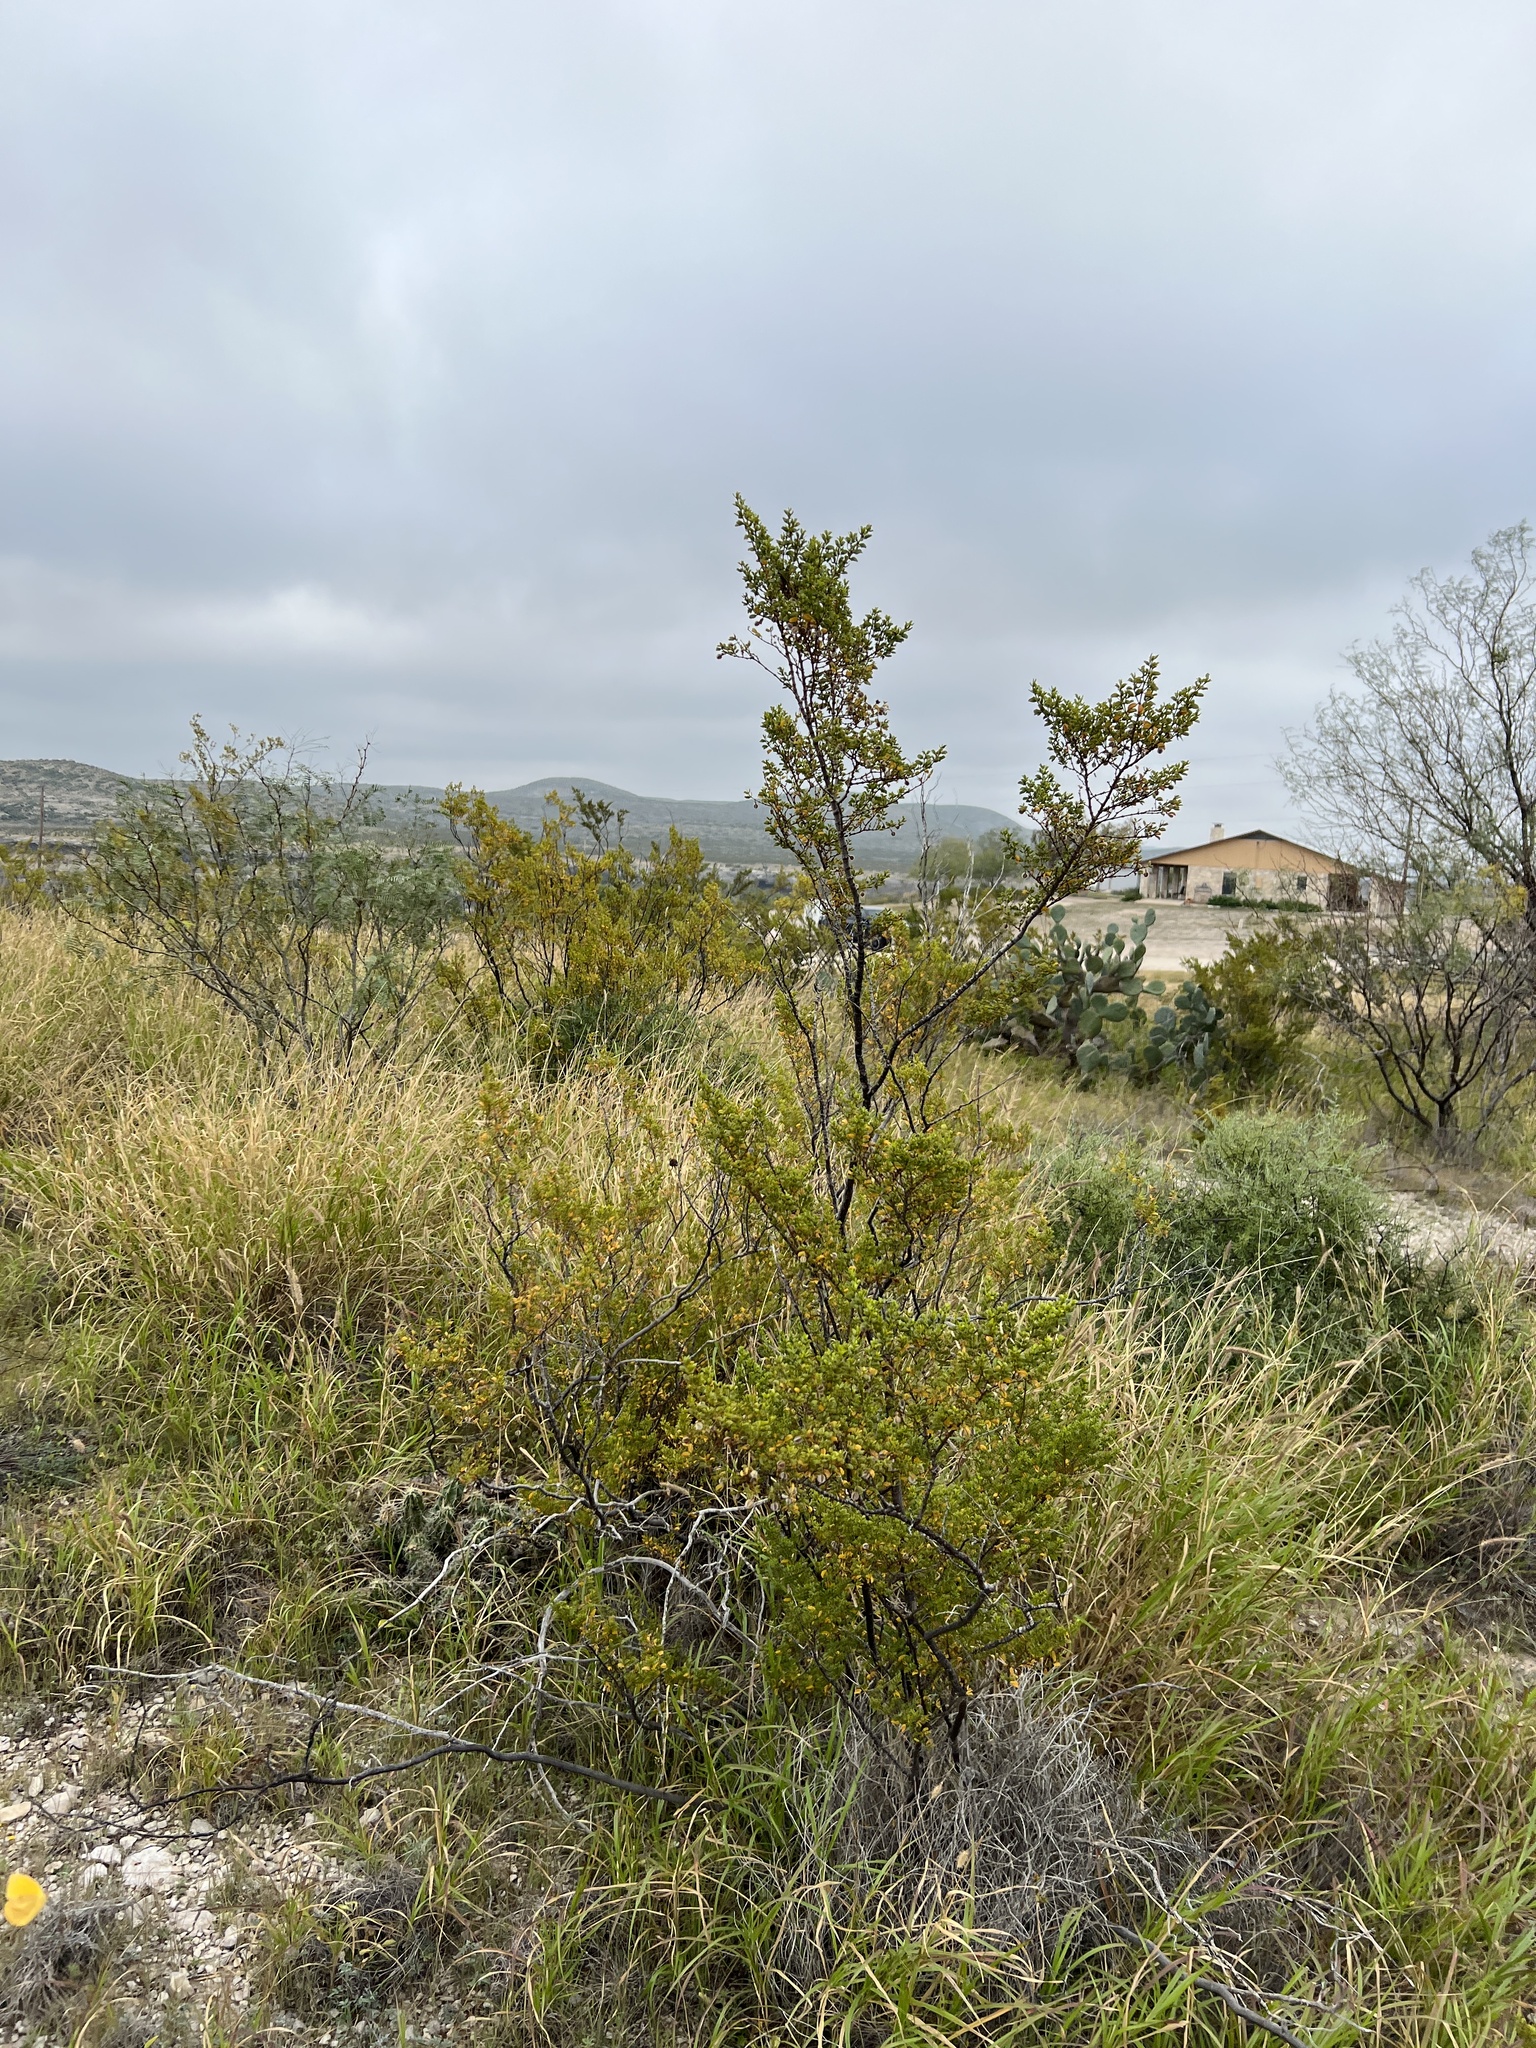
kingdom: Plantae
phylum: Tracheophyta
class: Magnoliopsida
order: Zygophyllales
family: Zygophyllaceae
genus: Larrea
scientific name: Larrea tridentata
